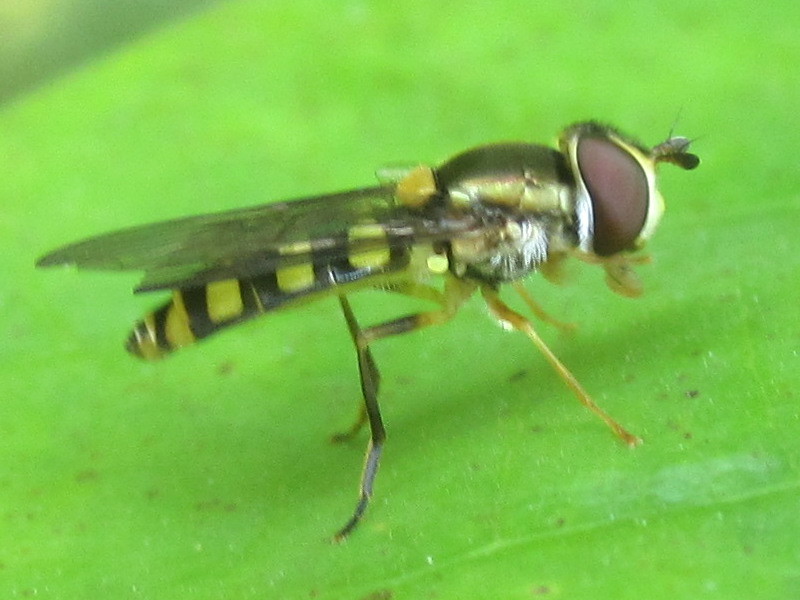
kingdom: Animalia
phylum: Arthropoda
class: Insecta
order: Diptera
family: Syrphidae
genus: Epistrophella
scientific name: Epistrophella emarginata
